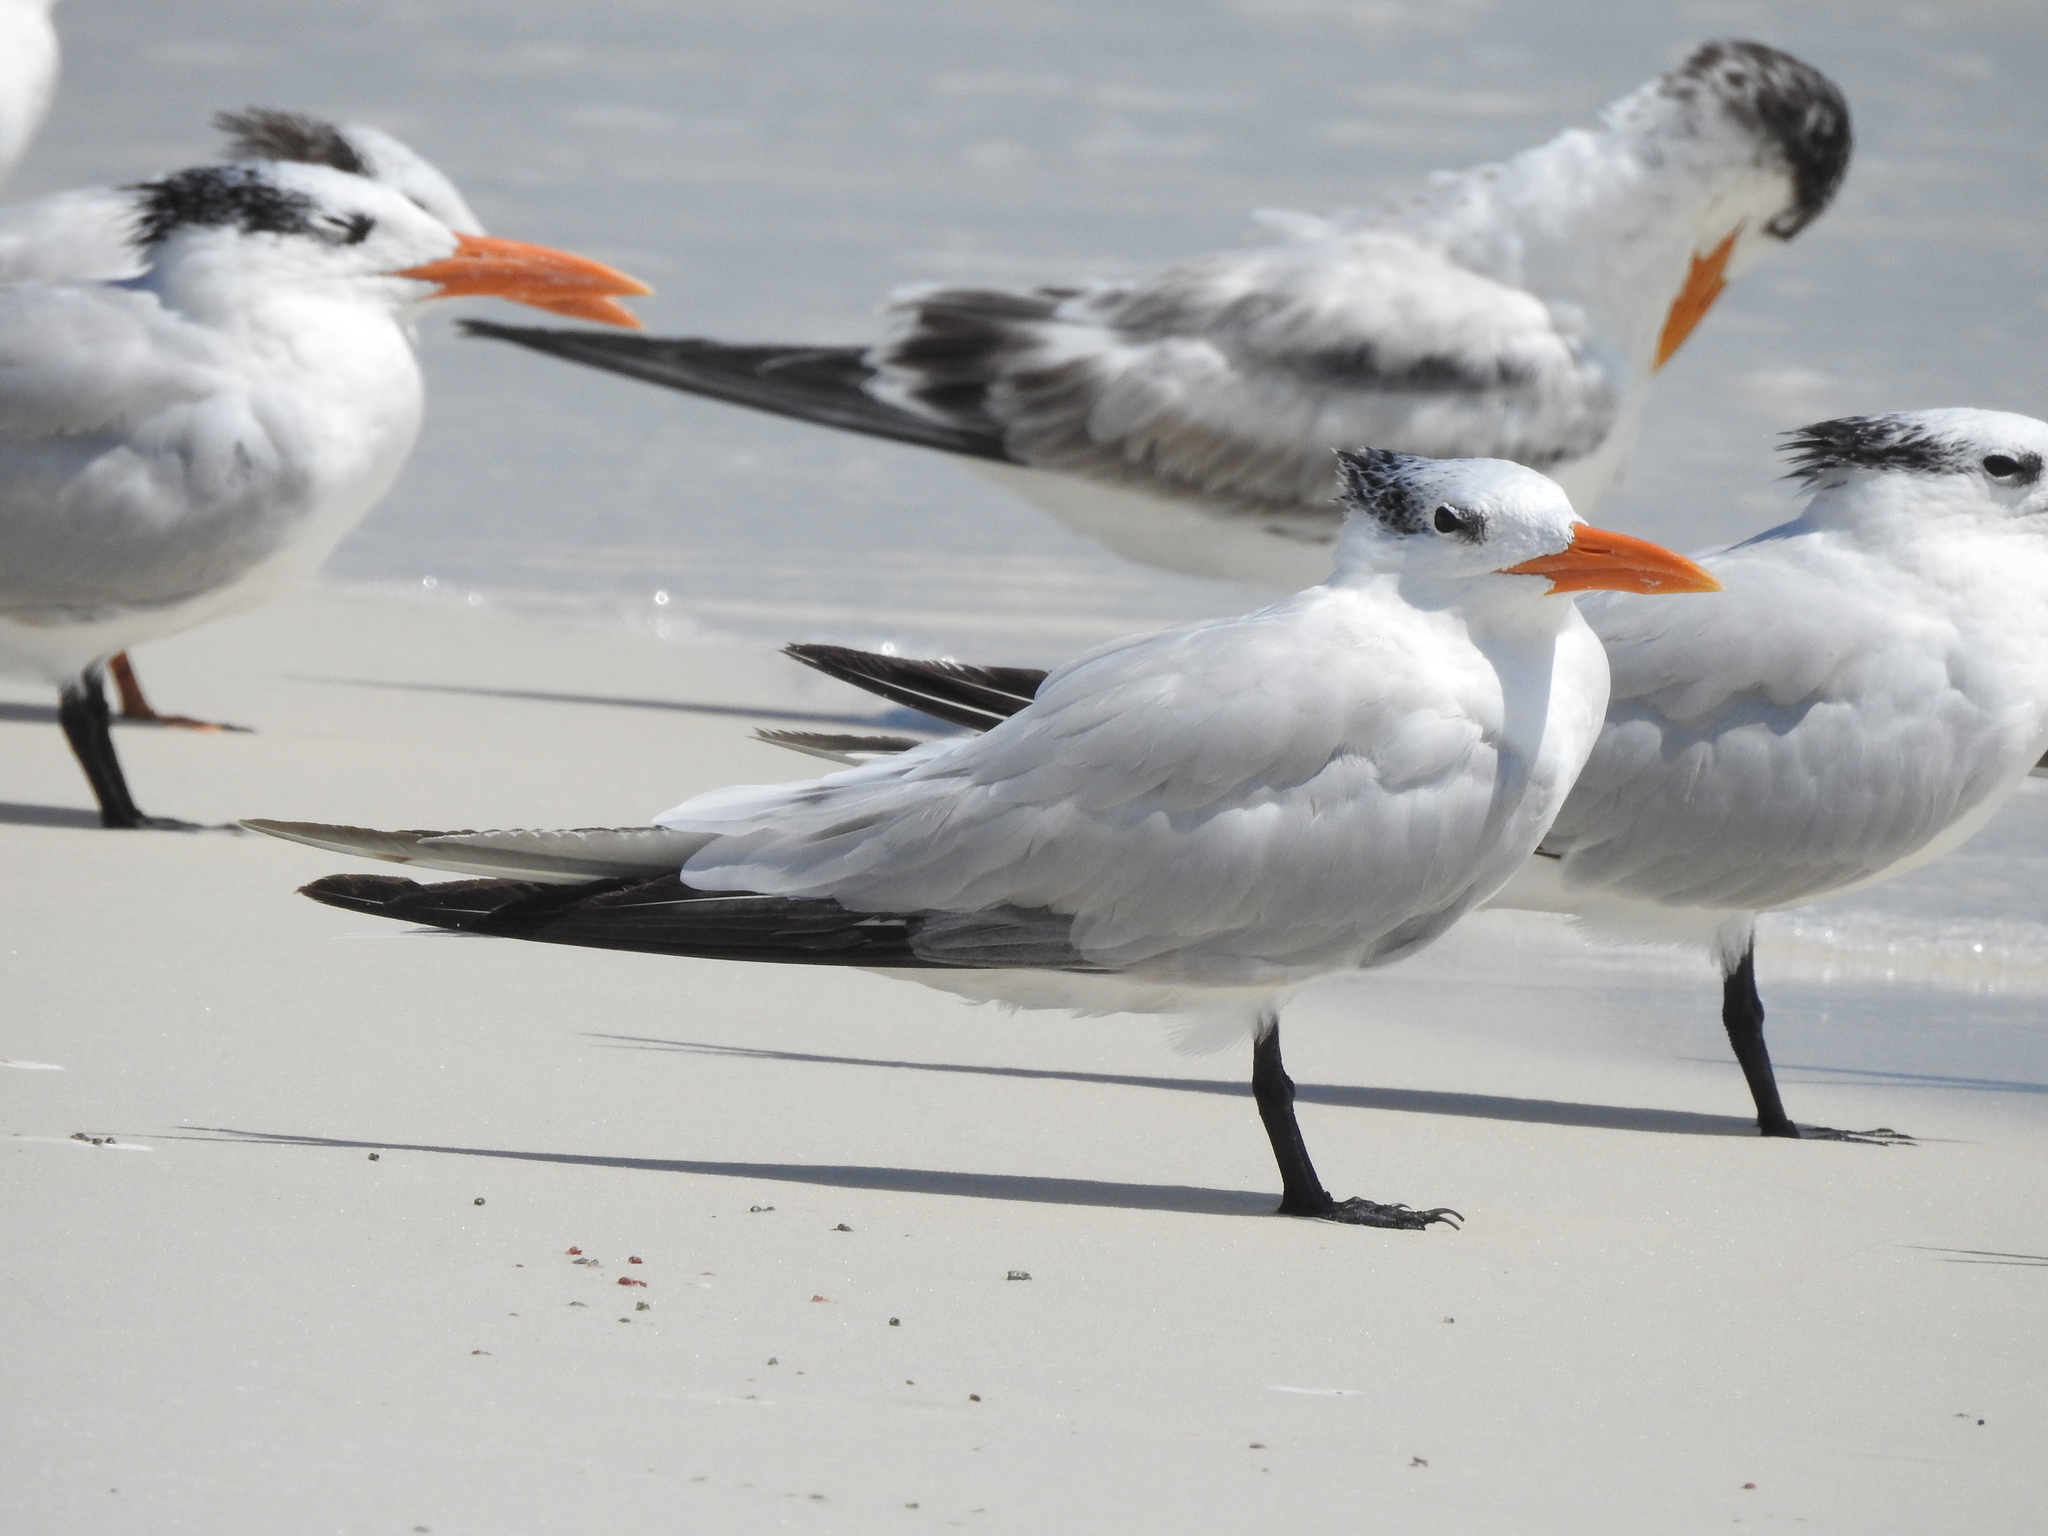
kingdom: Animalia
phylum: Chordata
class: Aves
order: Charadriiformes
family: Laridae
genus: Thalasseus
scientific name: Thalasseus maximus
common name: Royal tern
